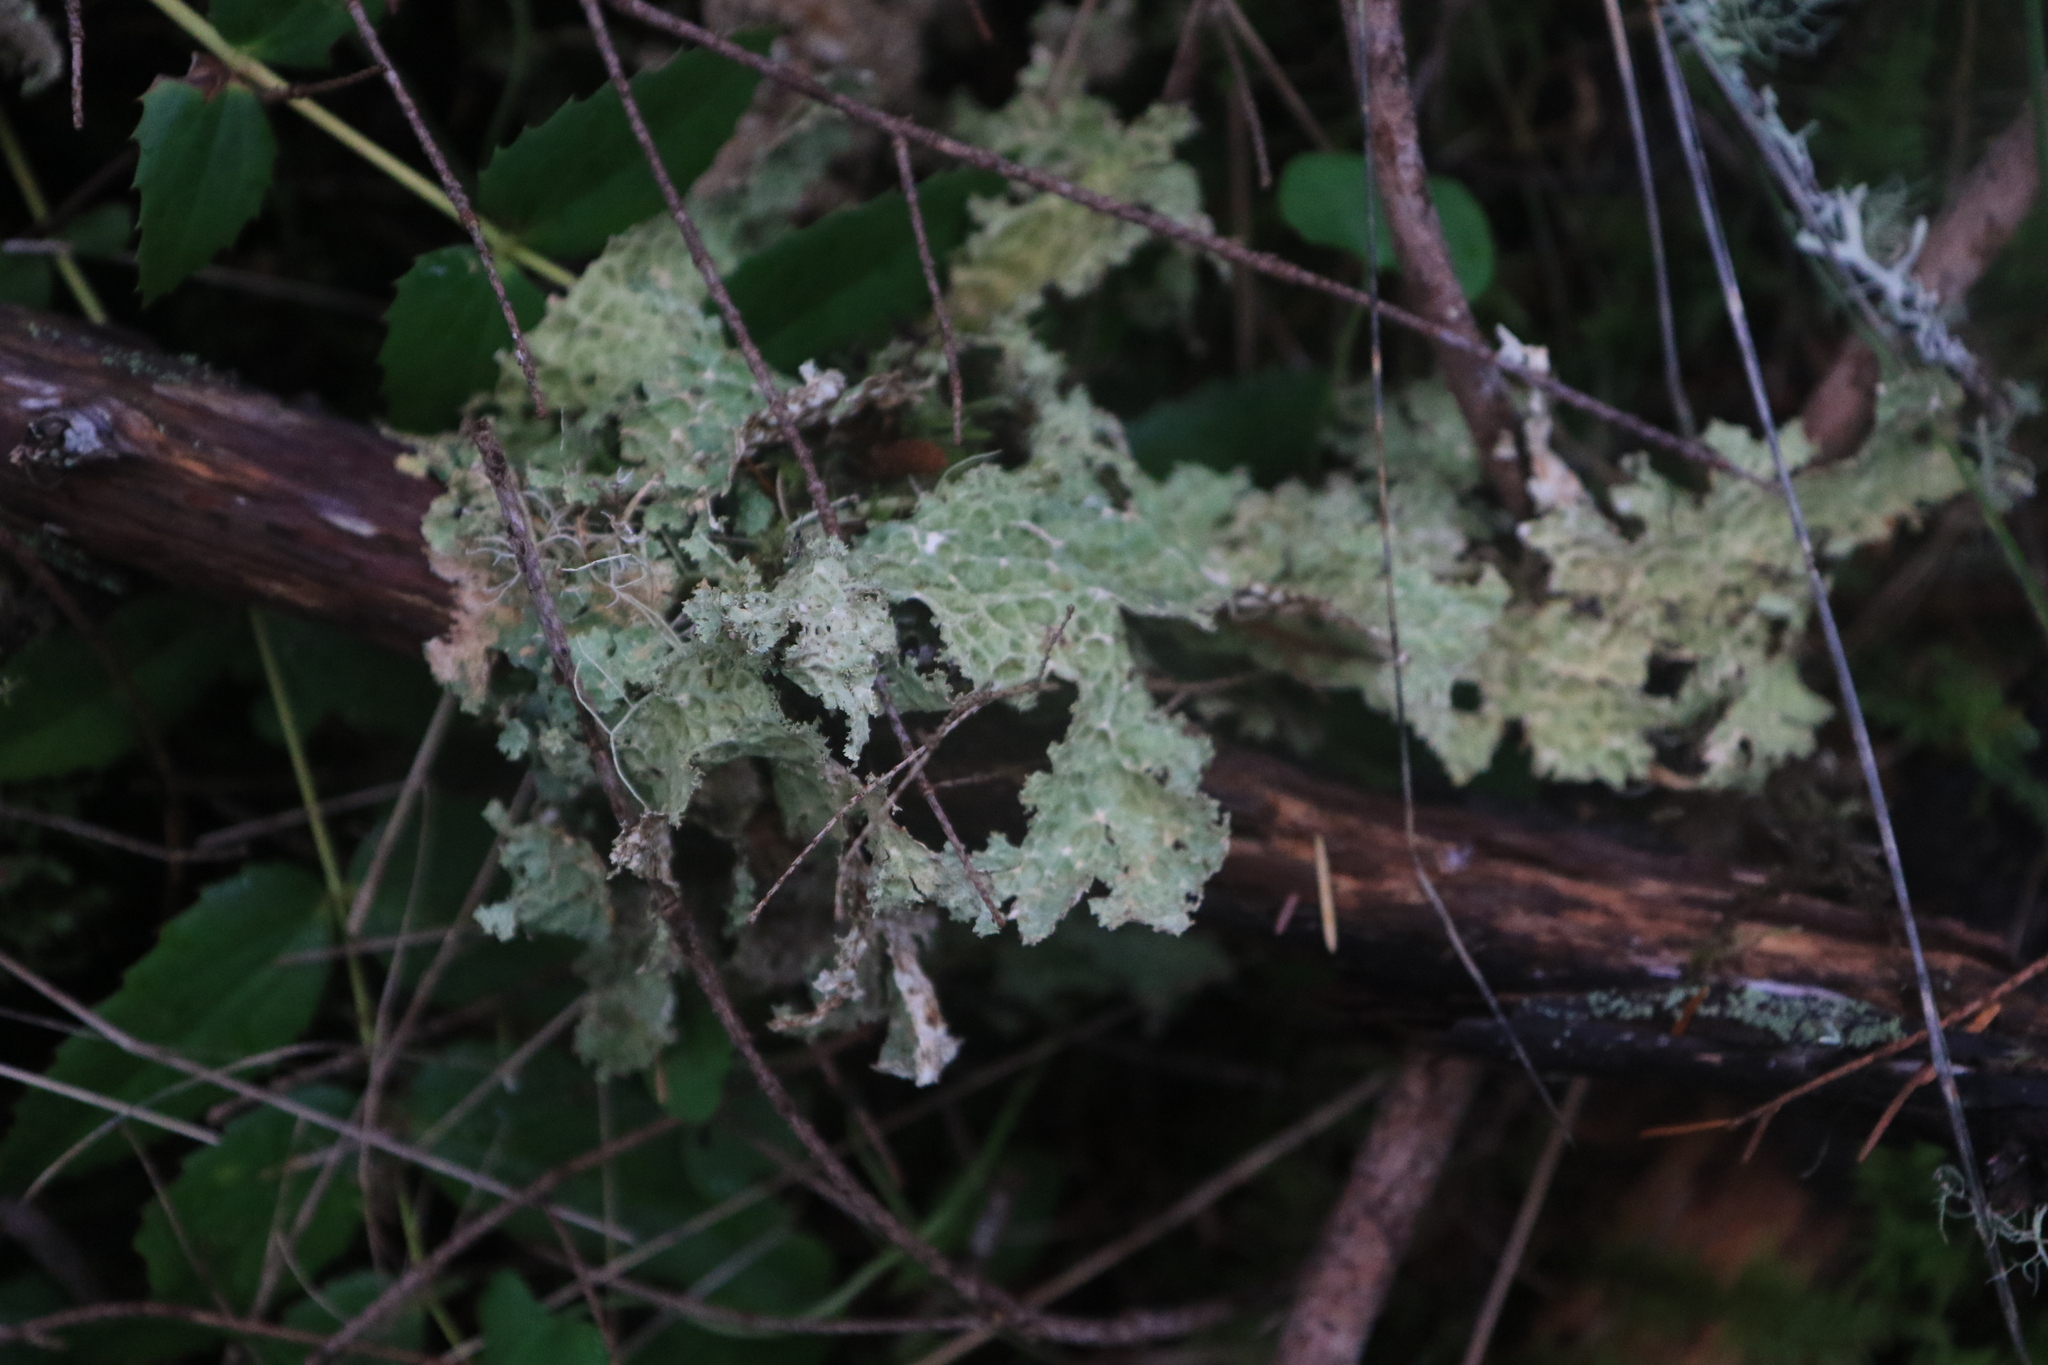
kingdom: Fungi
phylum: Ascomycota
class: Lecanoromycetes
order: Peltigerales
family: Lobariaceae
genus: Lobaria
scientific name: Lobaria oregana
